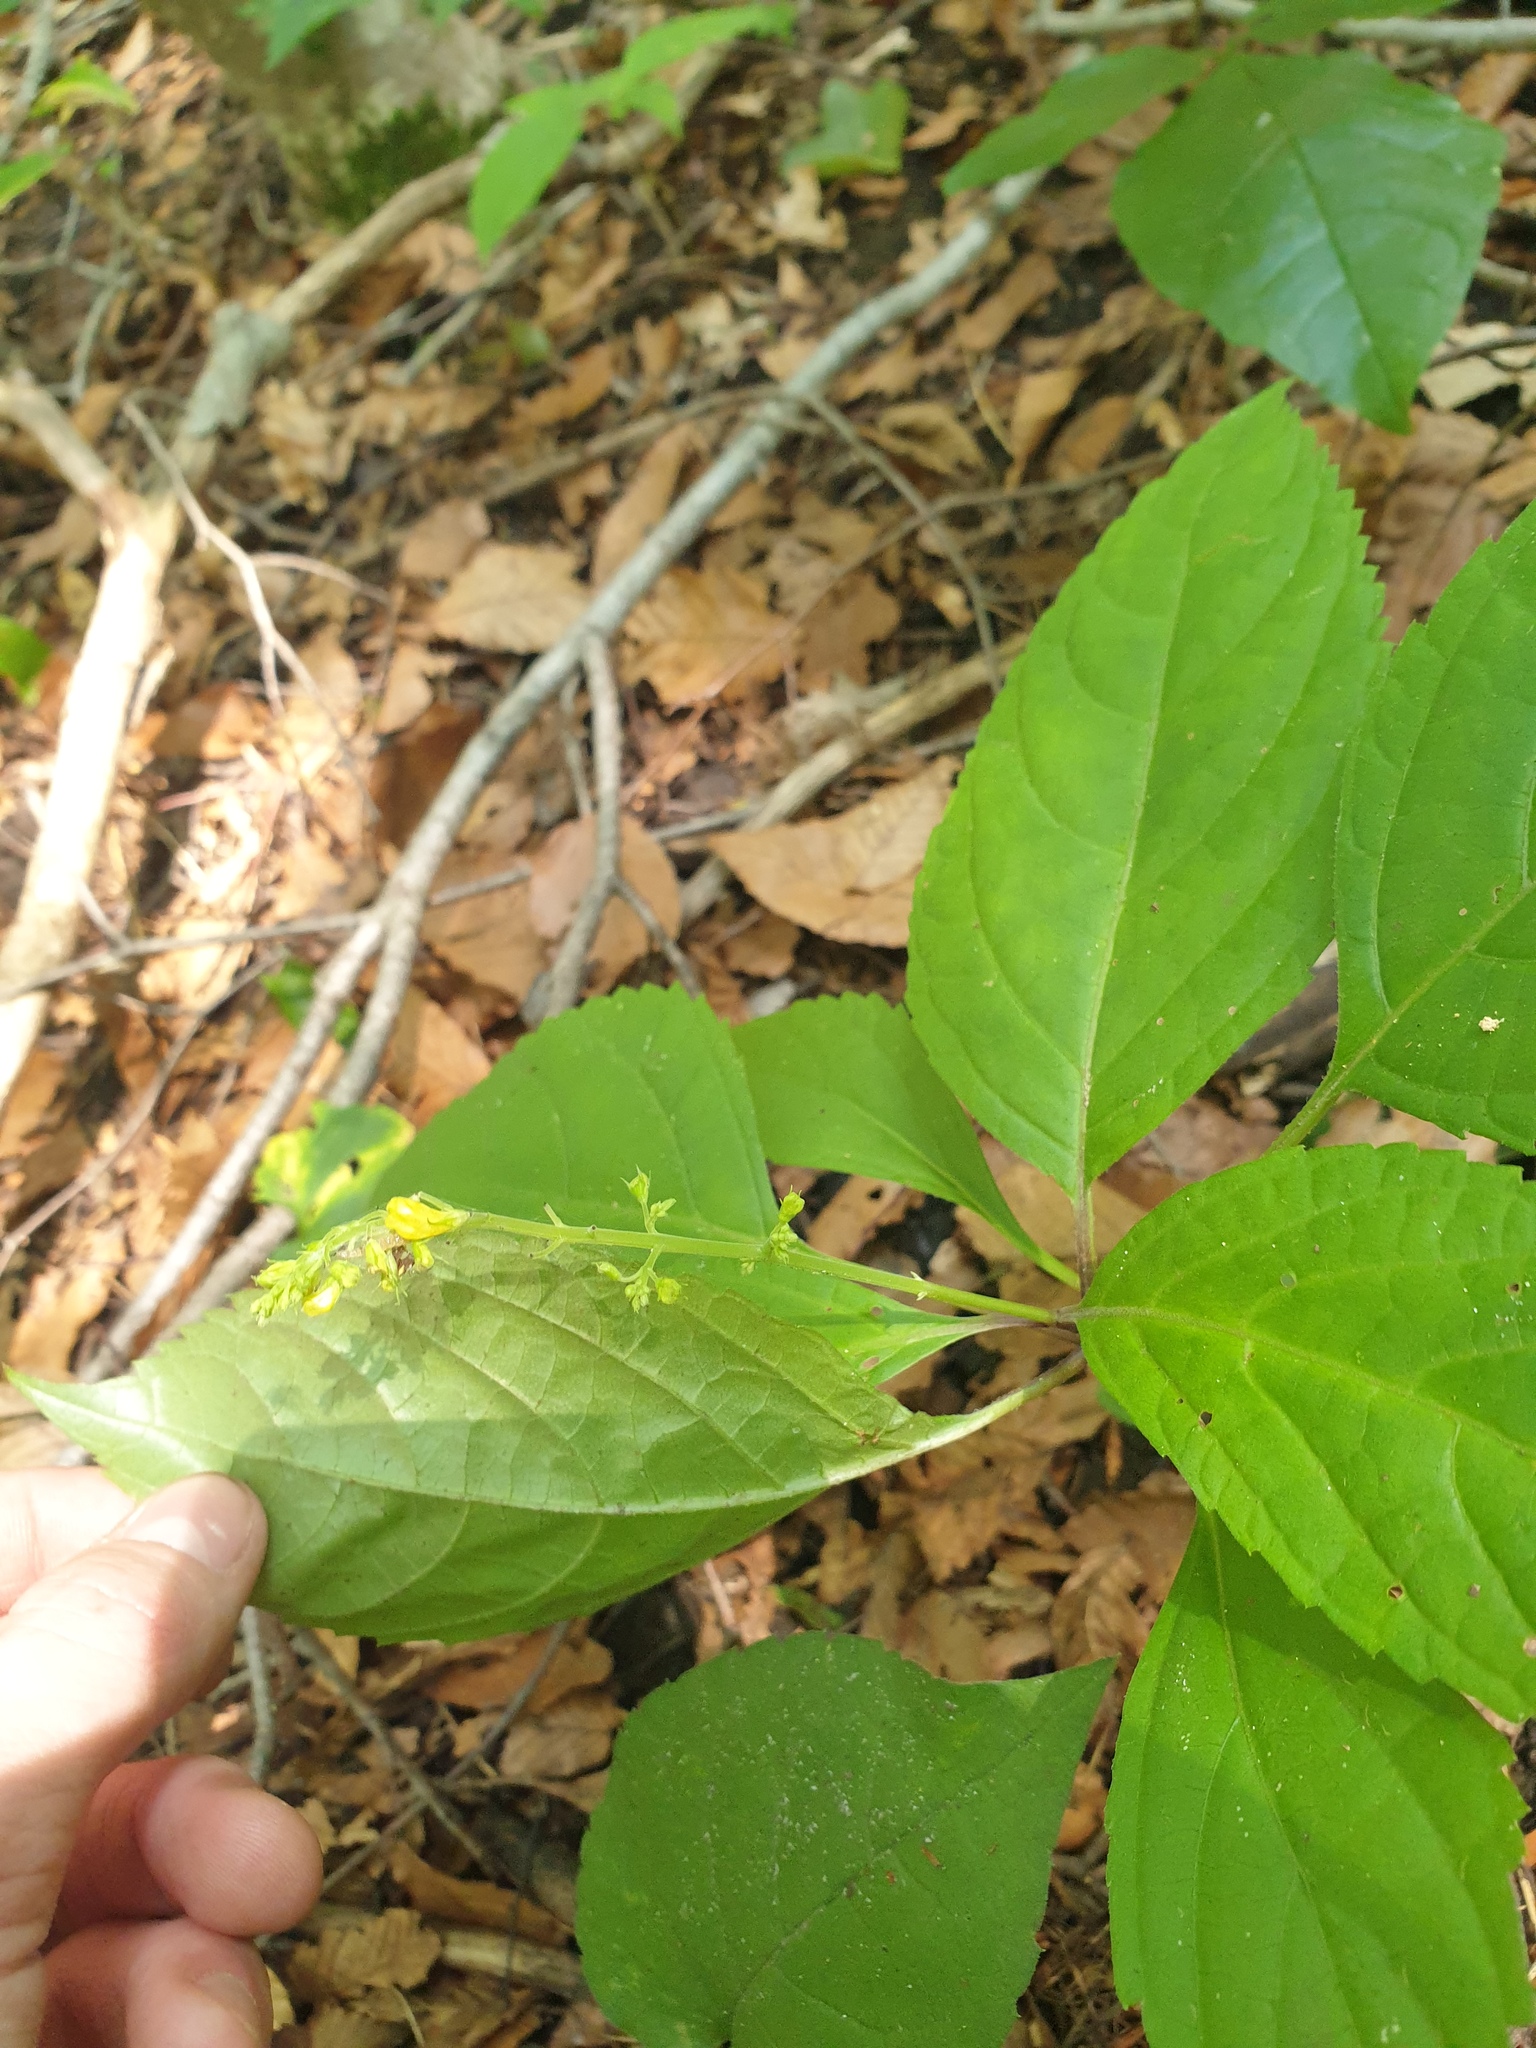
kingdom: Plantae
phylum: Tracheophyta
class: Magnoliopsida
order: Lamiales
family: Lamiaceae
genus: Collinsonia
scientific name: Collinsonia canadensis
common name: Northern horsebalm
